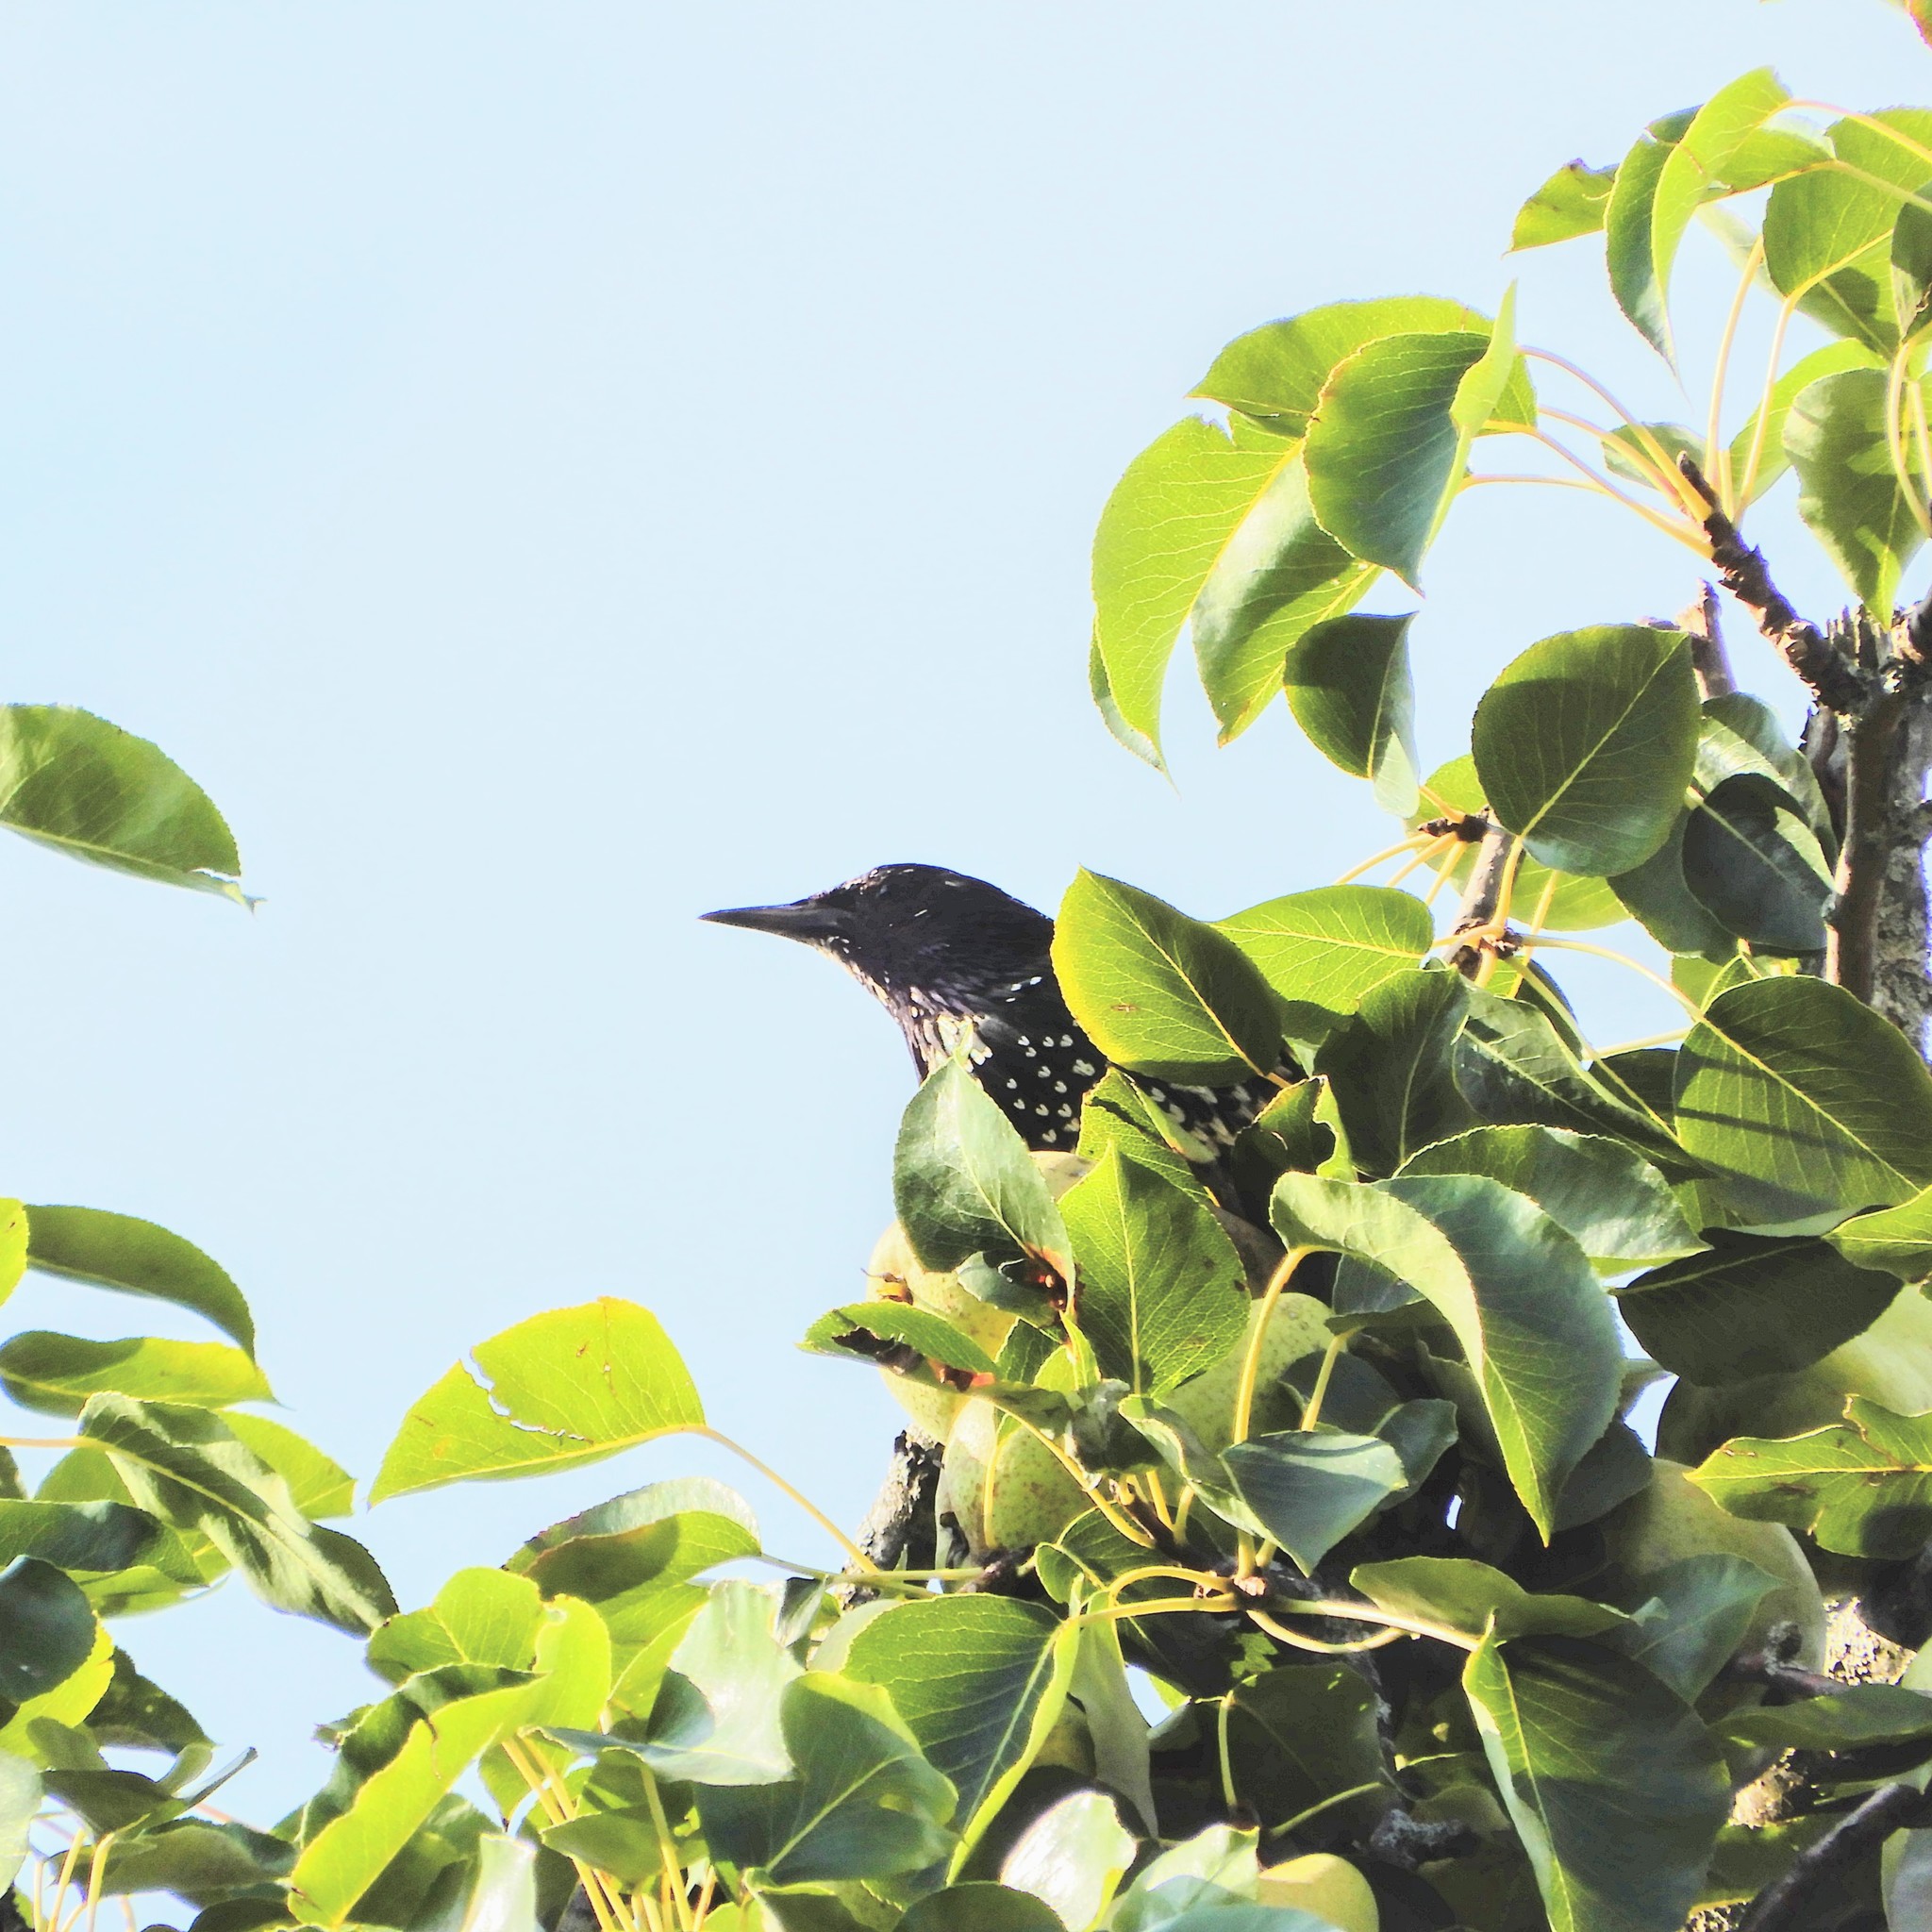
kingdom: Animalia
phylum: Chordata
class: Aves
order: Passeriformes
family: Sturnidae
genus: Sturnus
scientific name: Sturnus vulgaris
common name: Common starling
